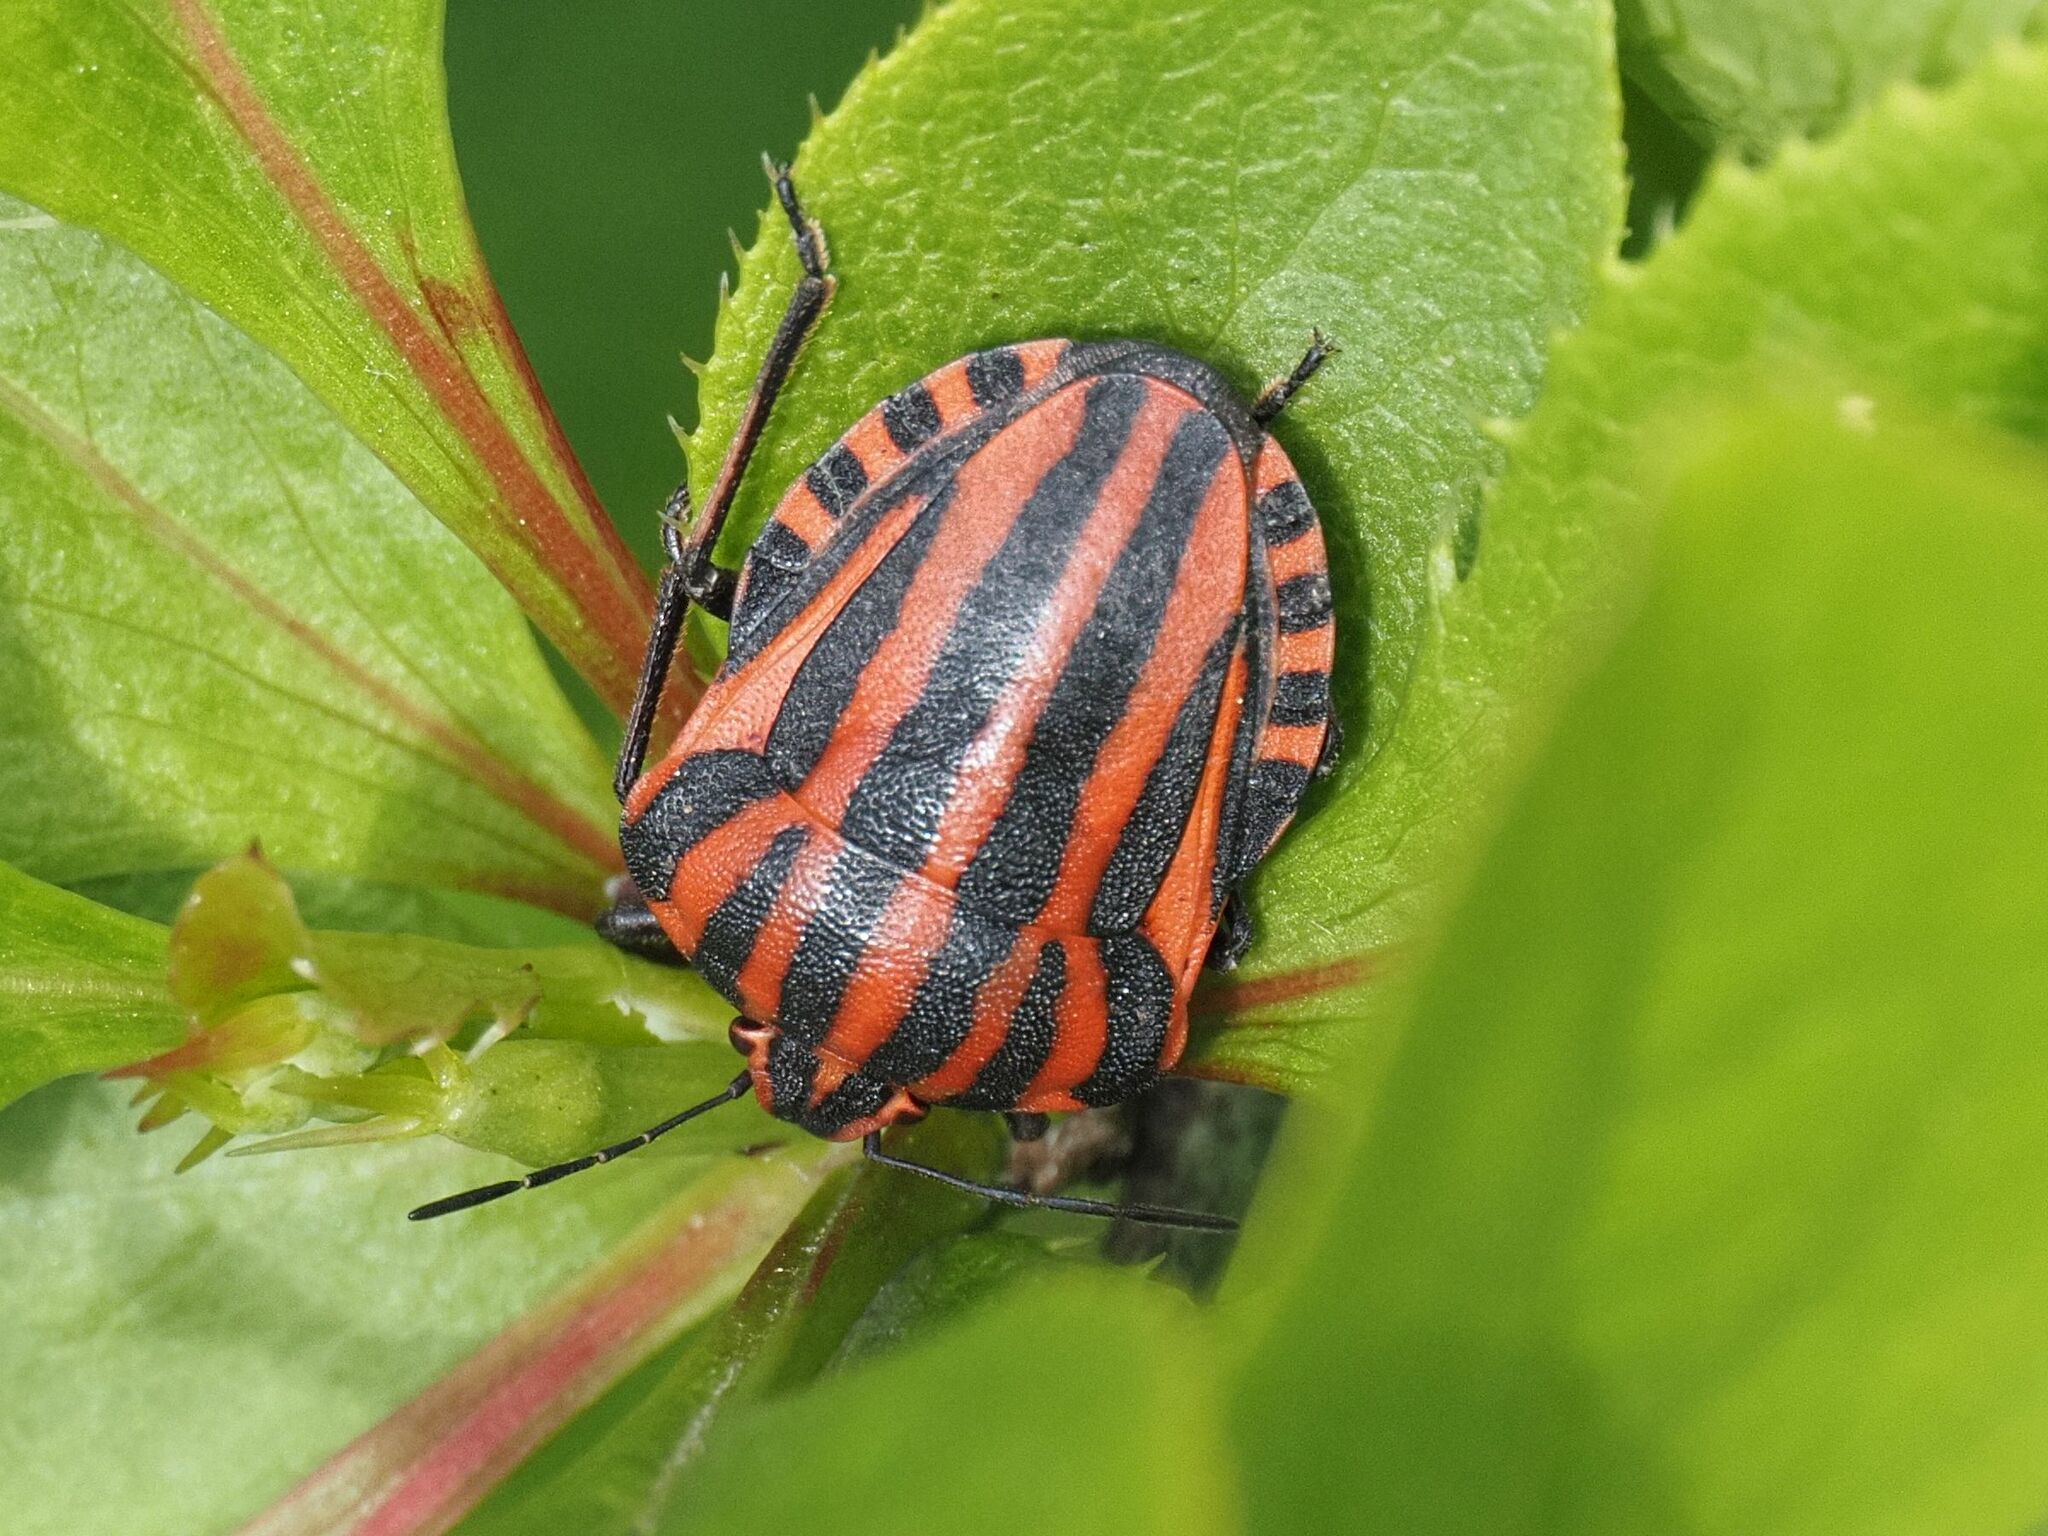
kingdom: Animalia
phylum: Arthropoda
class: Insecta
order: Hemiptera
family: Pentatomidae
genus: Graphosoma
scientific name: Graphosoma italicum
